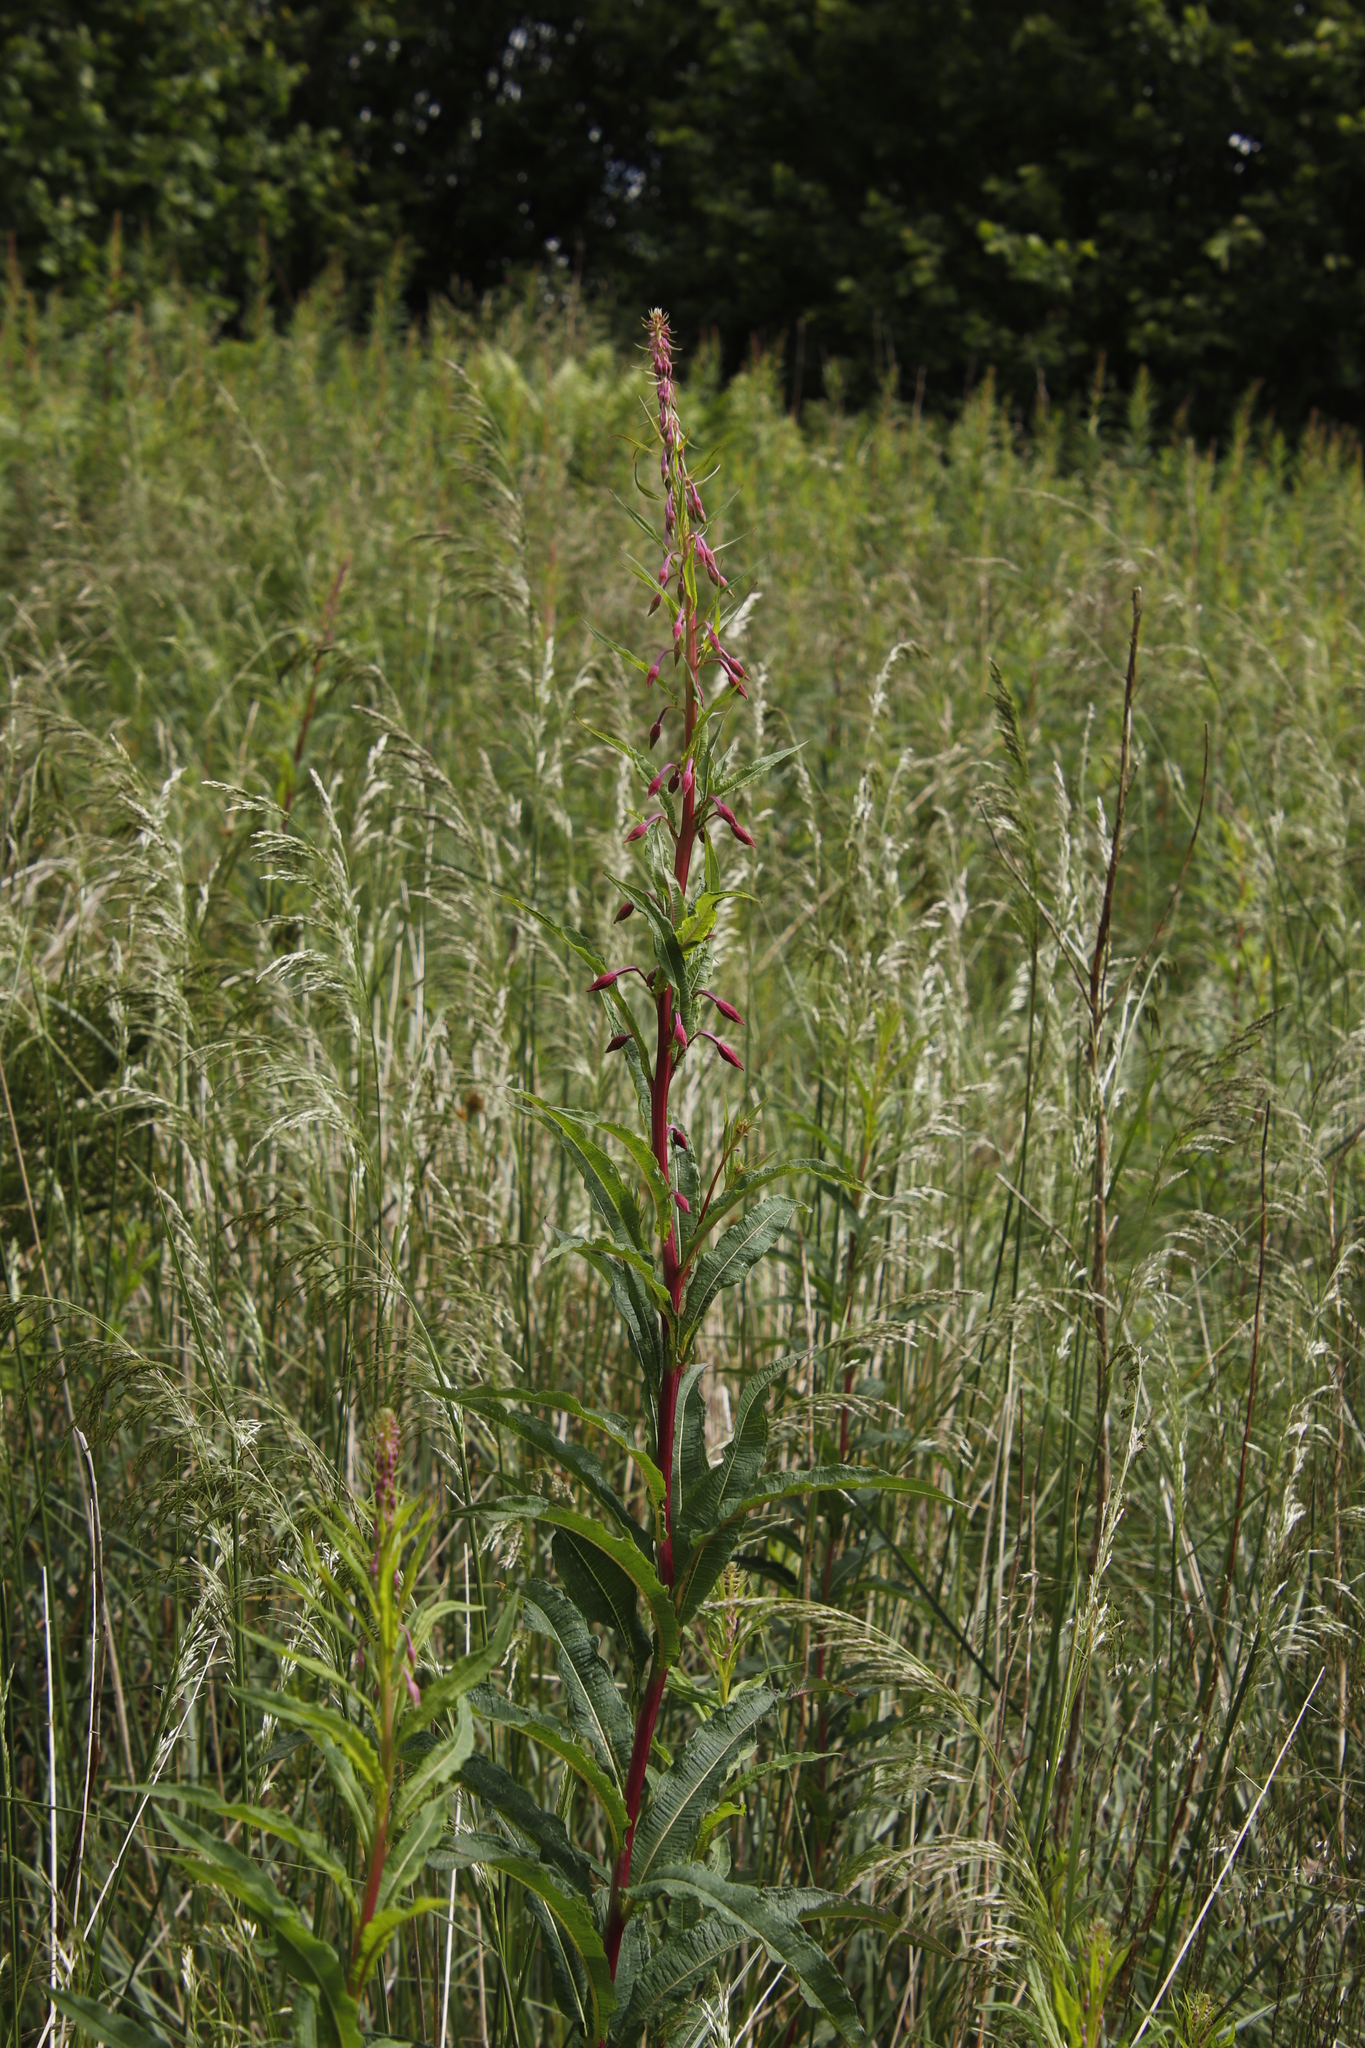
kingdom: Plantae
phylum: Tracheophyta
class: Magnoliopsida
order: Myrtales
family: Onagraceae
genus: Chamaenerion
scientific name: Chamaenerion angustifolium
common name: Fireweed
